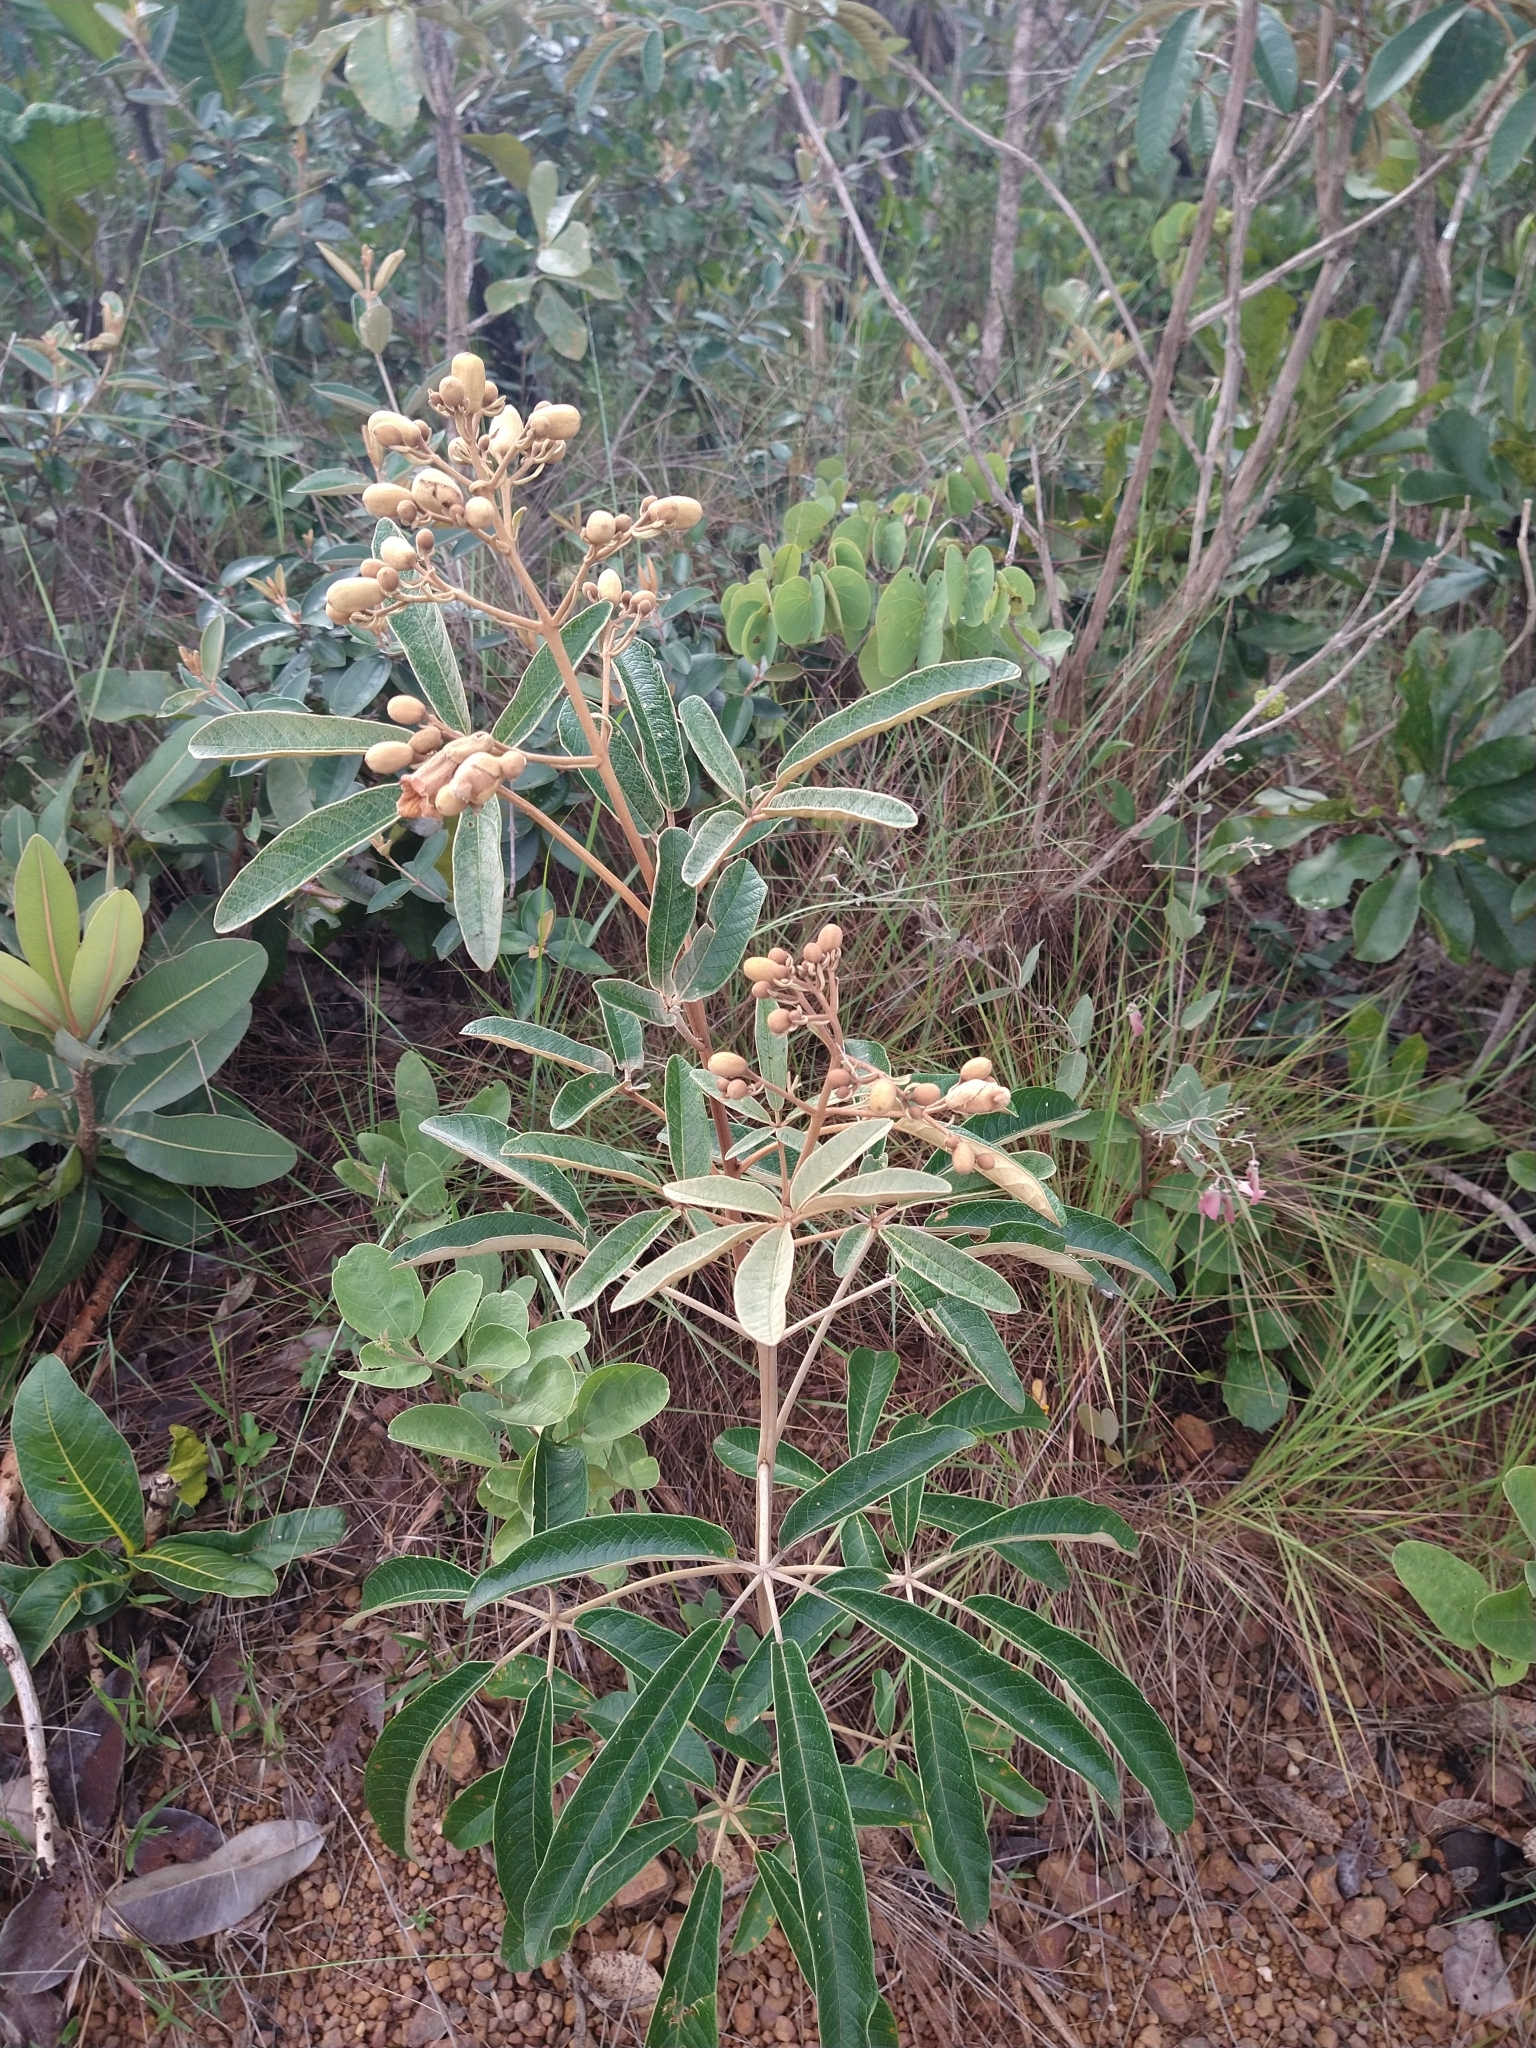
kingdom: Plantae
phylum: Tracheophyta
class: Magnoliopsida
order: Lamiales
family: Bignoniaceae
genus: Zeyheria
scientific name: Zeyheria montana
